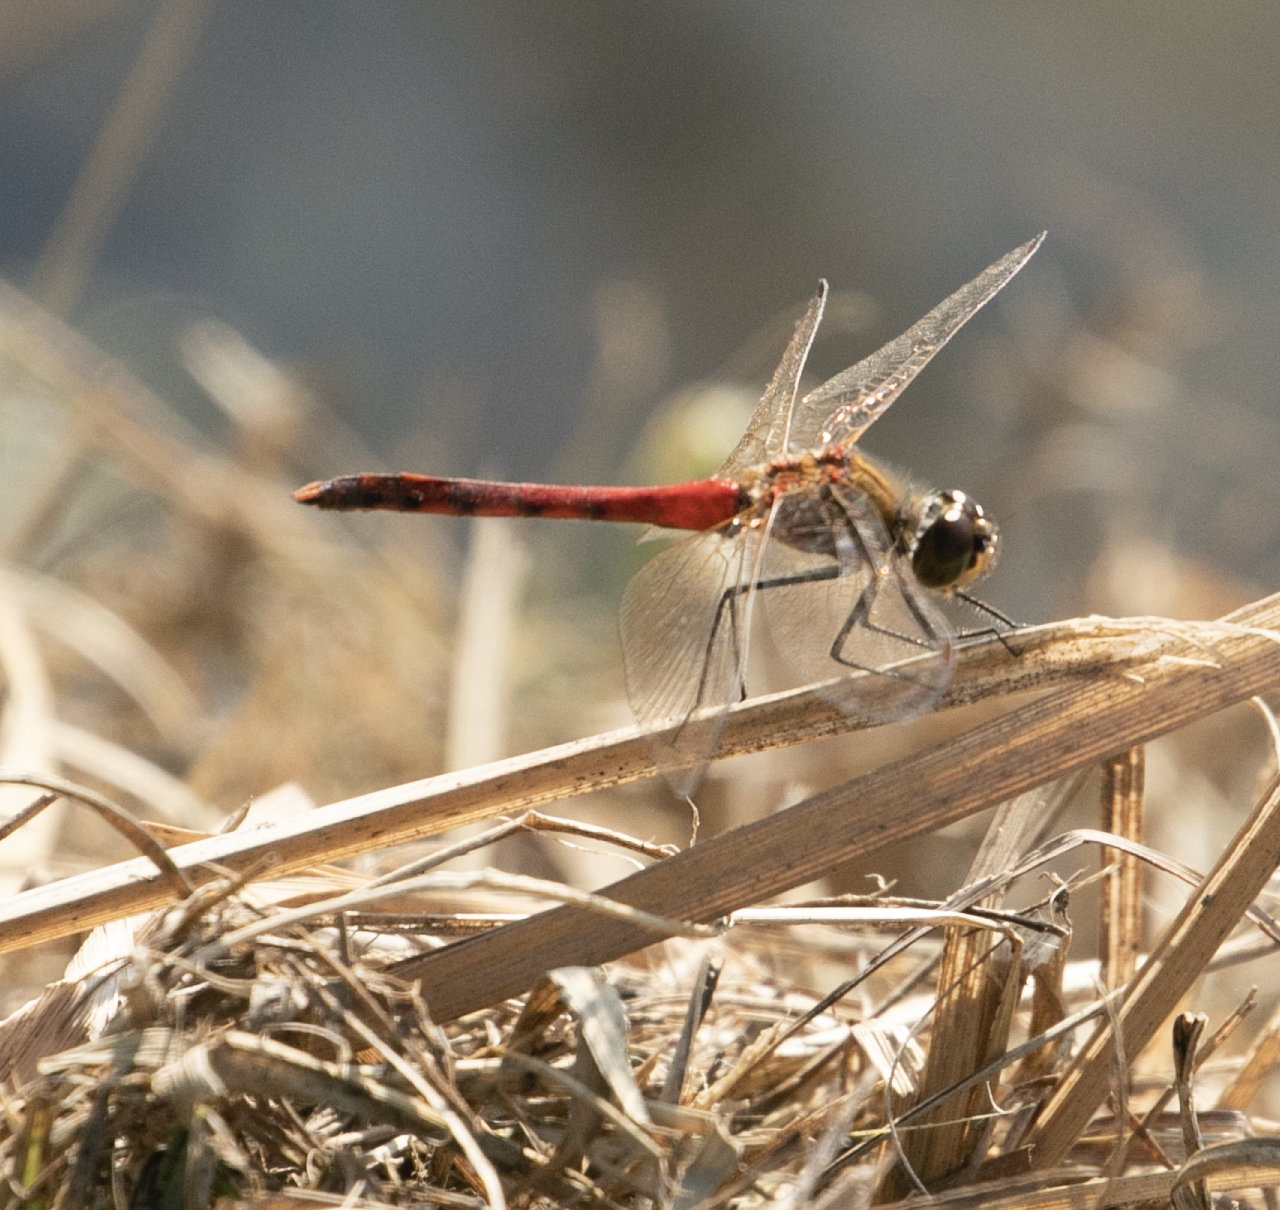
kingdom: Animalia
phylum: Arthropoda
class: Insecta
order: Odonata
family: Libellulidae
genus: Sympetrum
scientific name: Sympetrum depressiusculum
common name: Spotted darter
